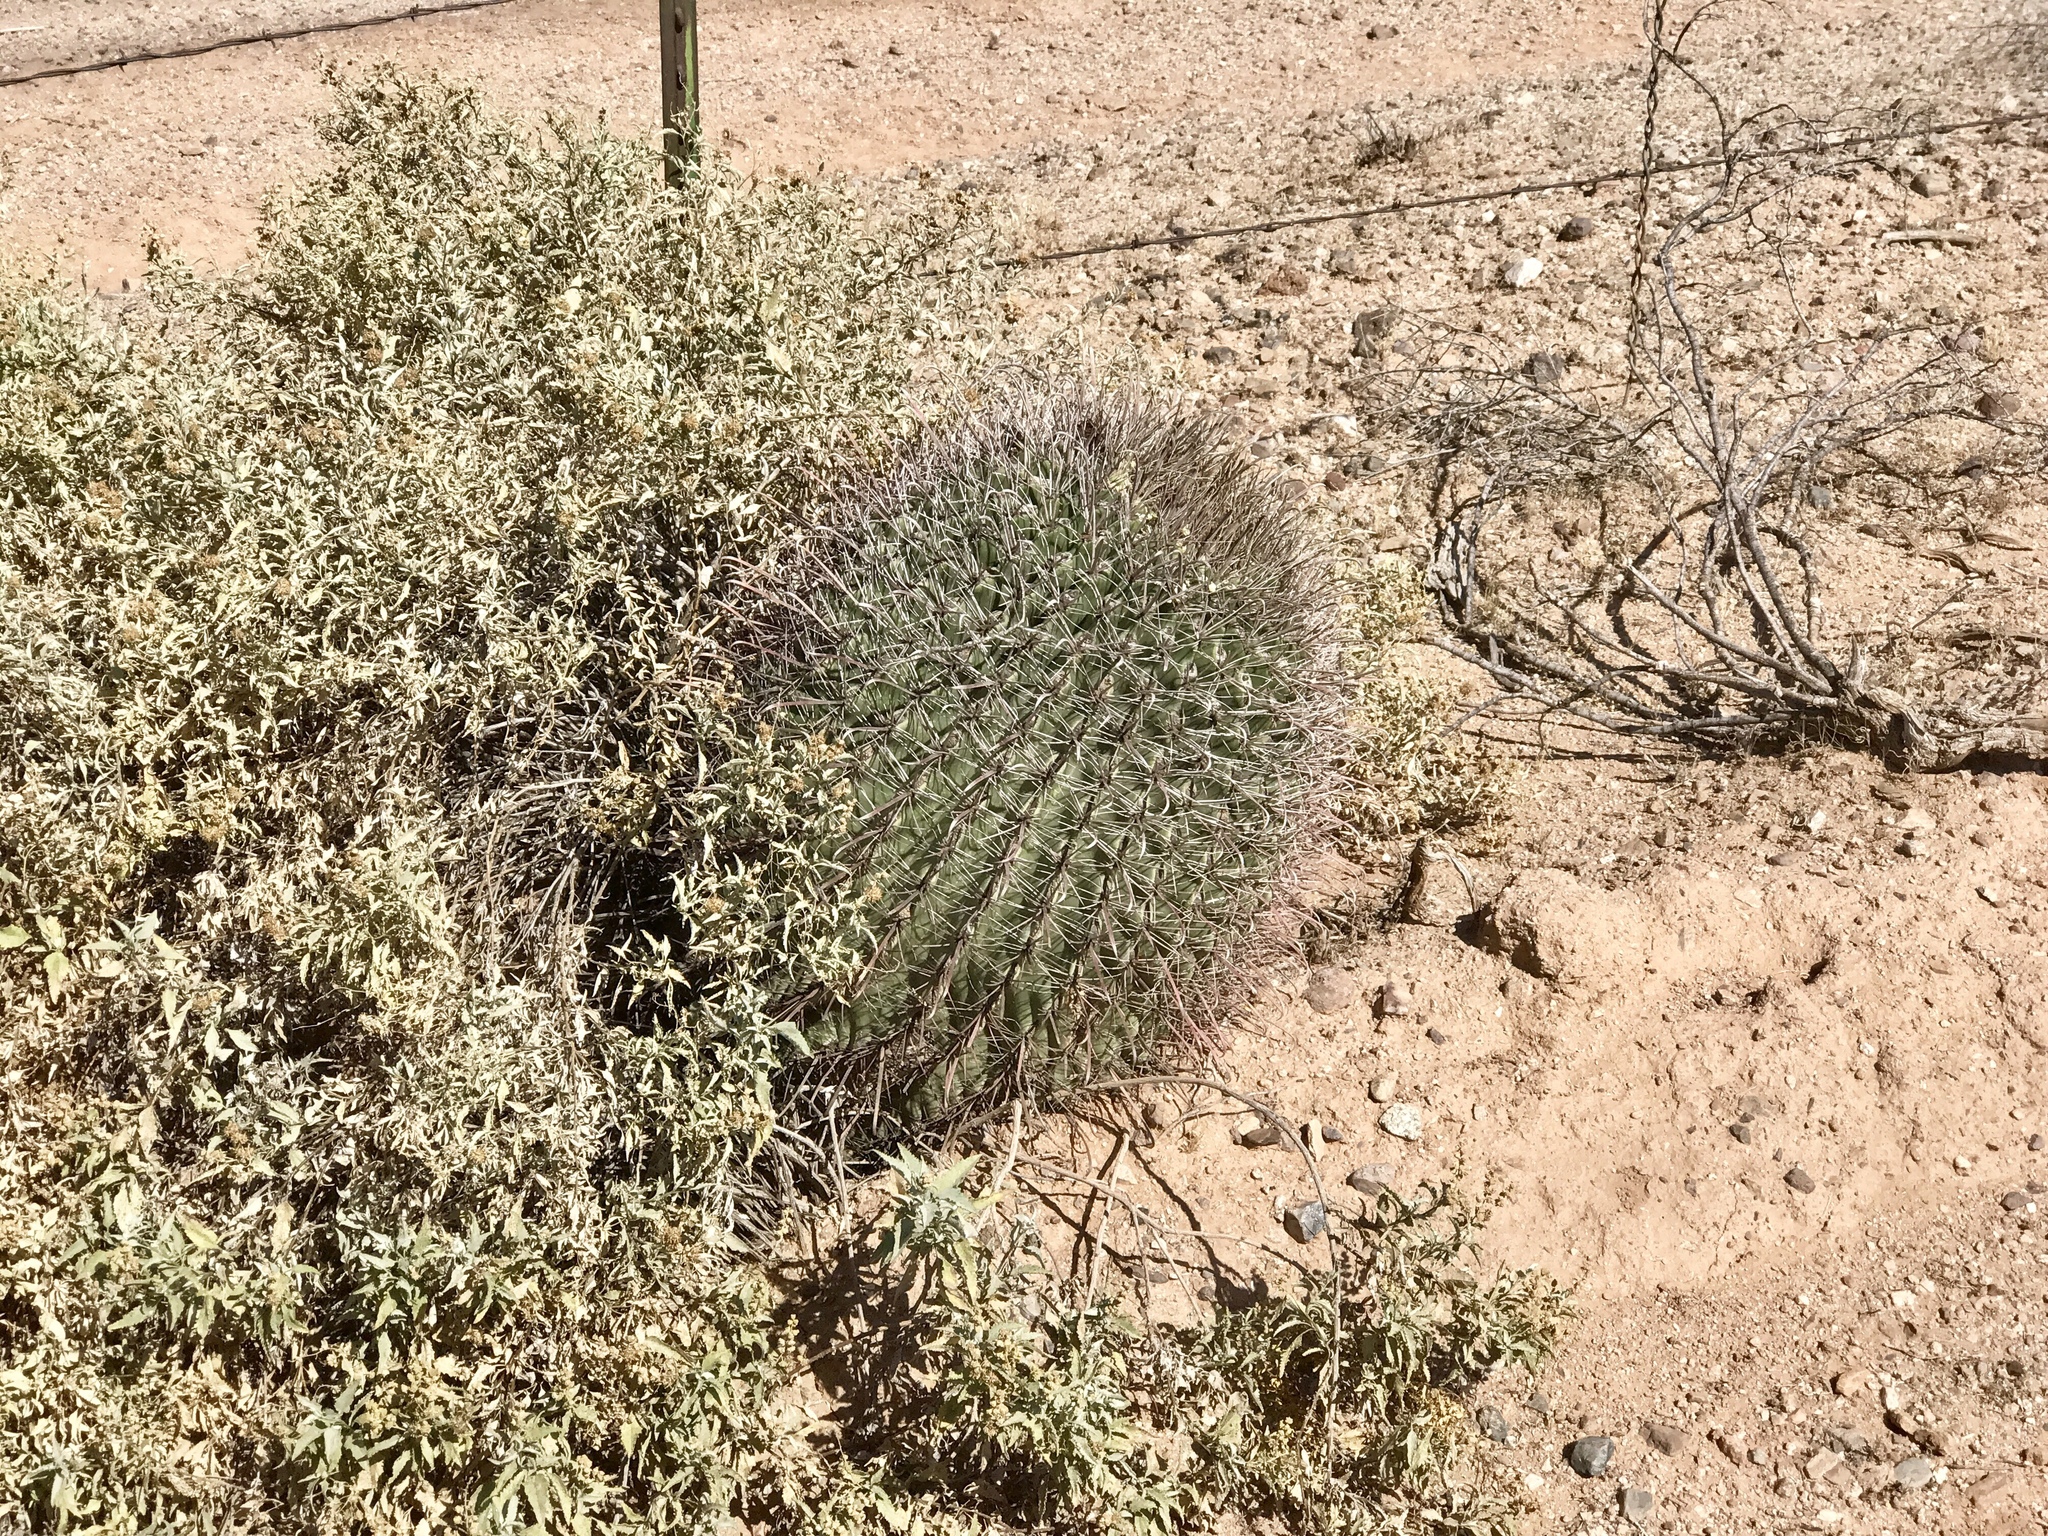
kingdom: Plantae
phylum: Tracheophyta
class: Magnoliopsida
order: Caryophyllales
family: Cactaceae
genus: Ferocactus
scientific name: Ferocactus wislizeni
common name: Candy barrel cactus
